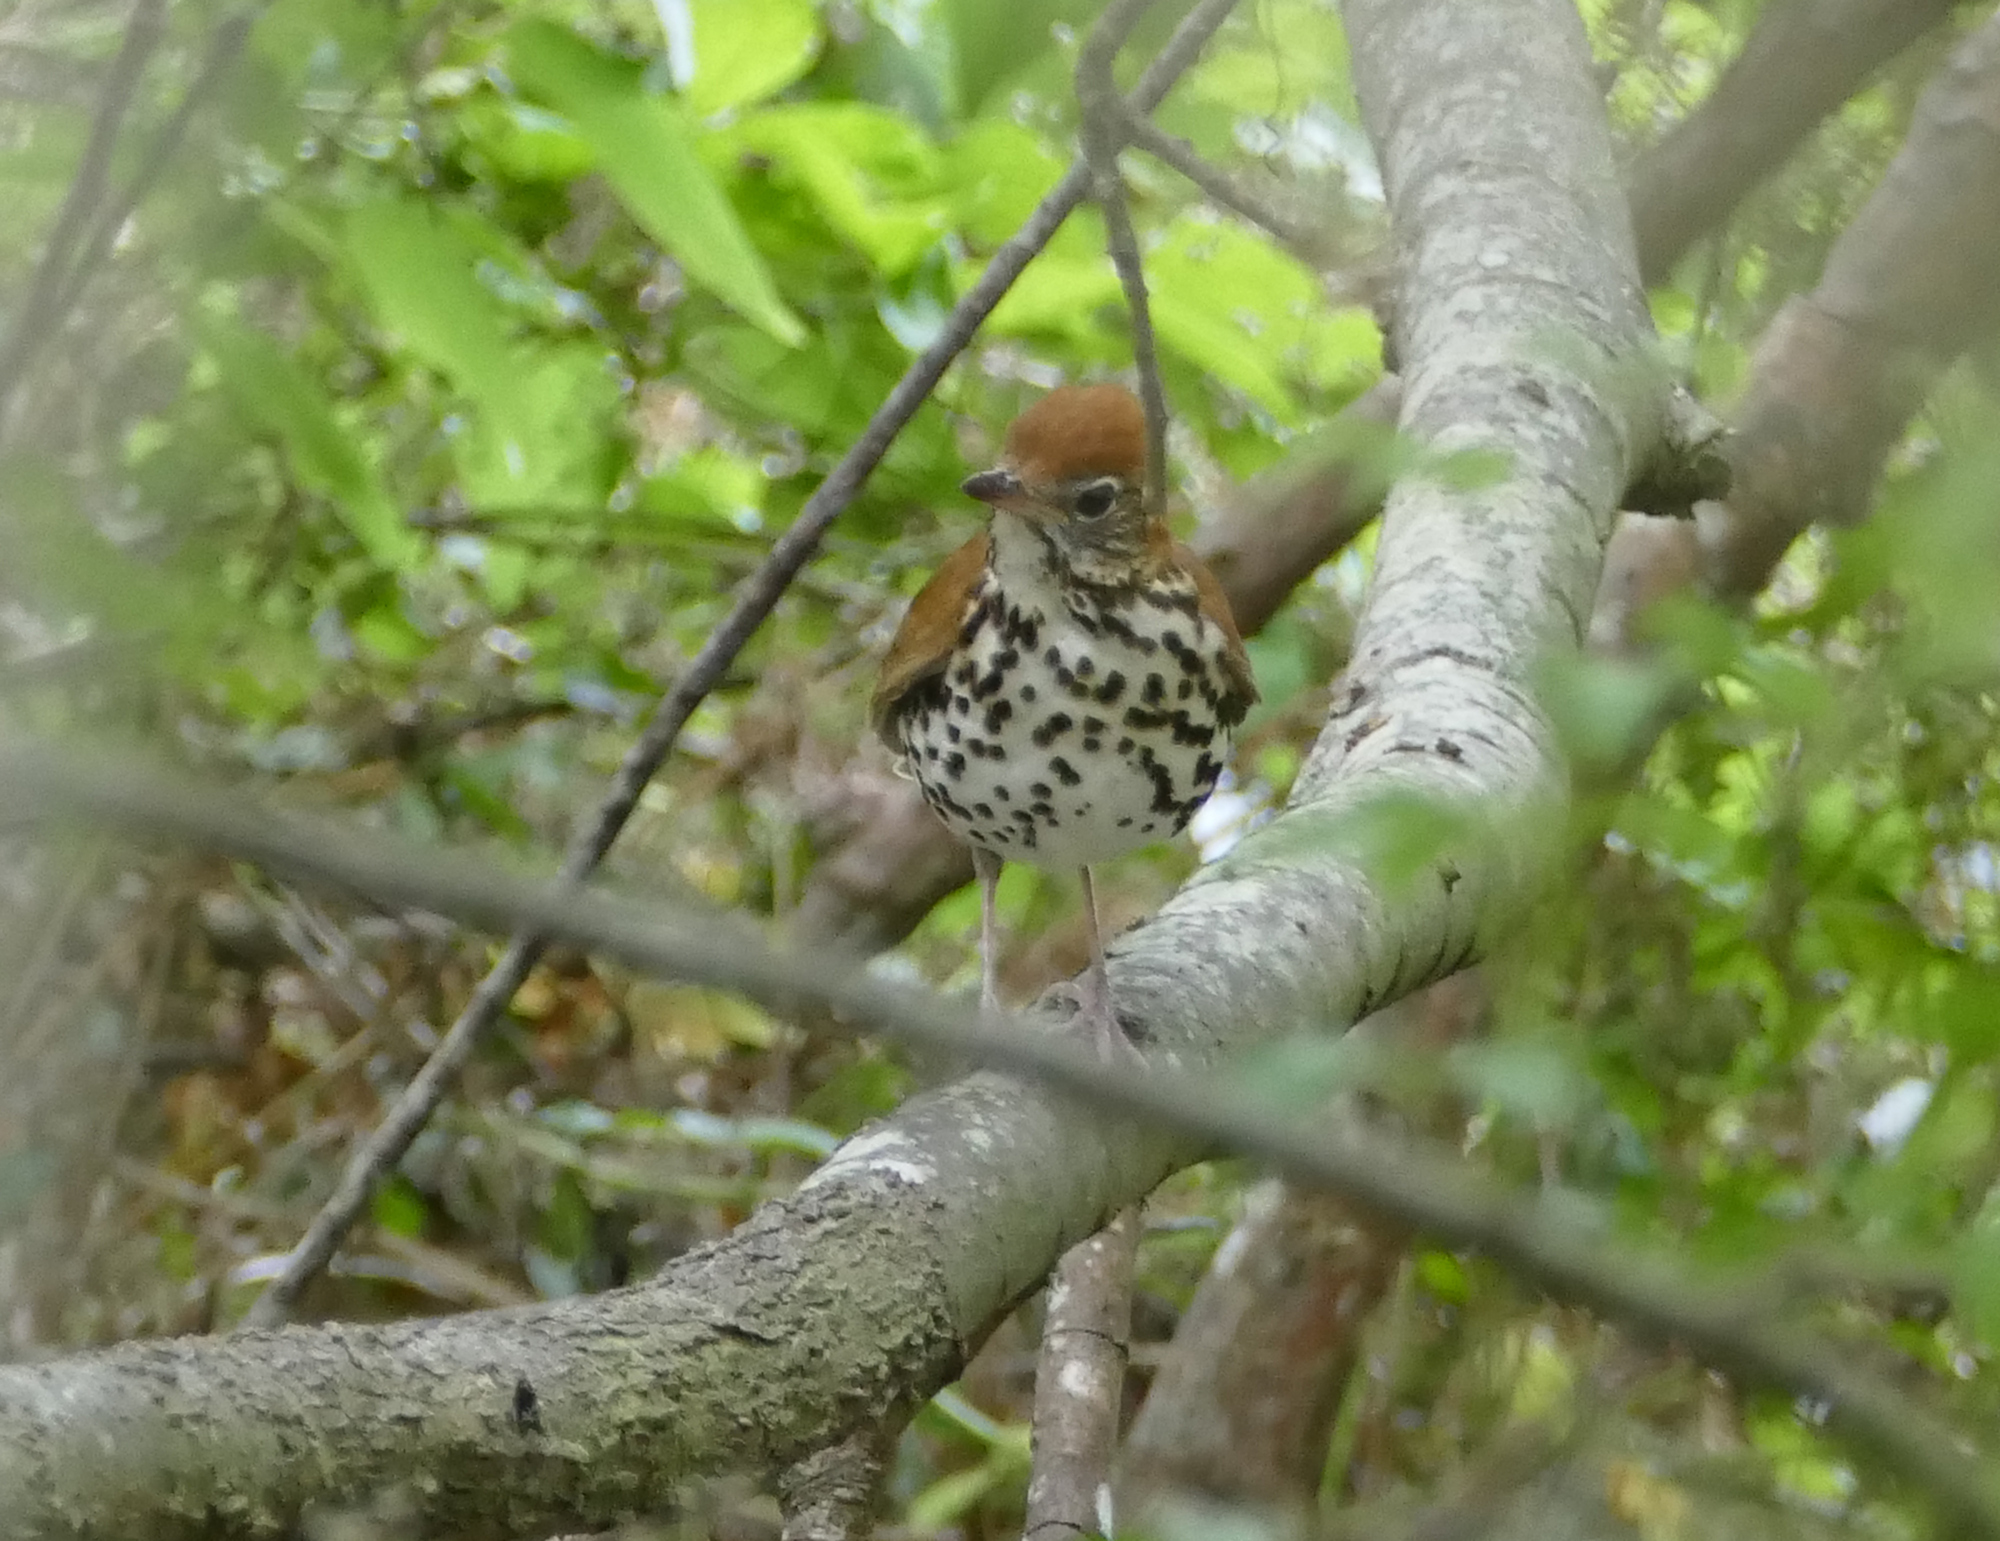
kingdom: Animalia
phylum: Chordata
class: Aves
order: Passeriformes
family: Turdidae
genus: Hylocichla
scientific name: Hylocichla mustelina
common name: Wood thrush
